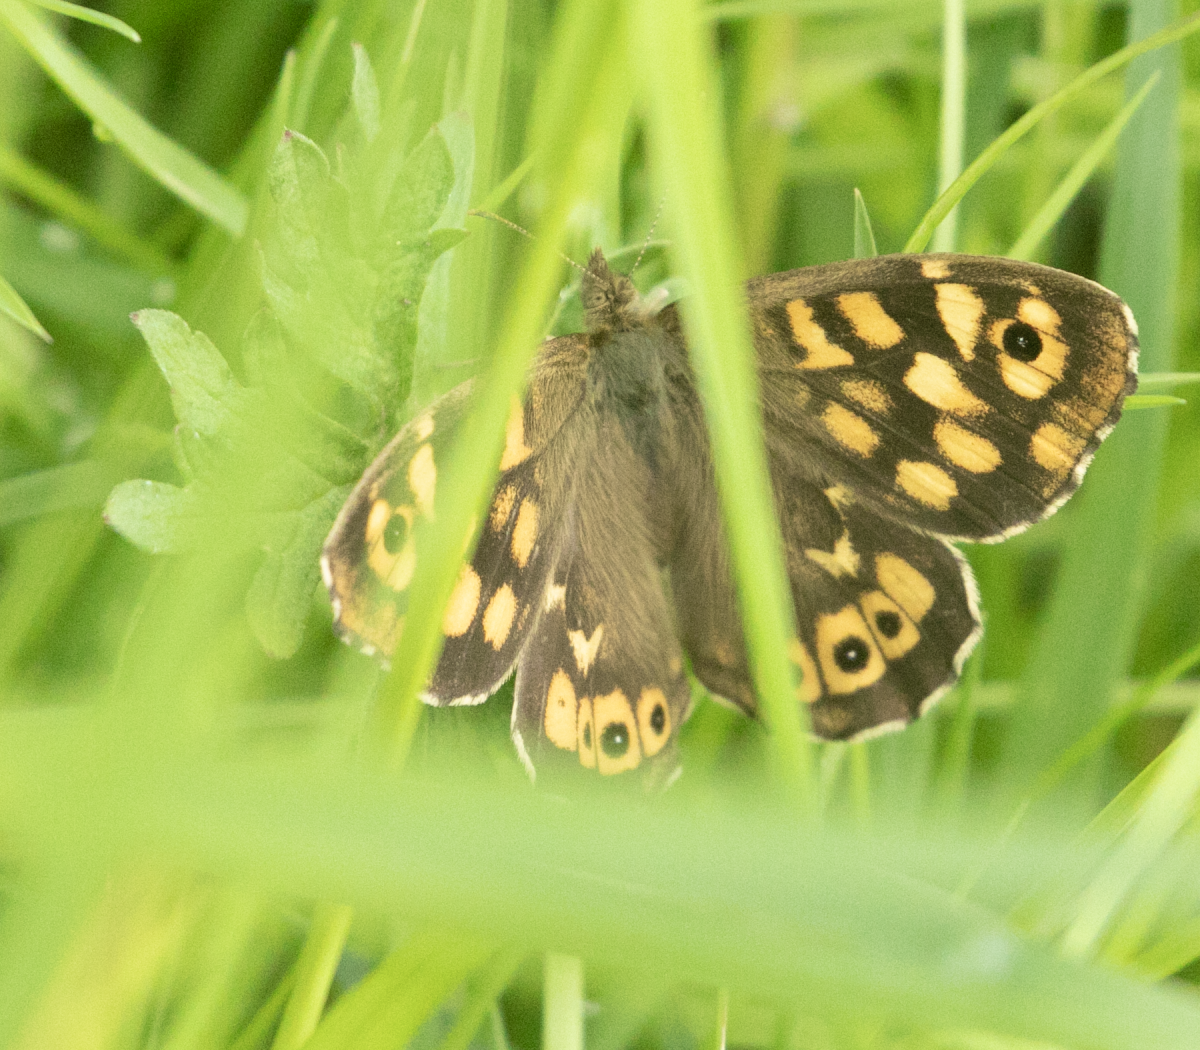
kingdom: Animalia
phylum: Arthropoda
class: Insecta
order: Lepidoptera
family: Nymphalidae
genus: Pararge
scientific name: Pararge aegeria
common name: Speckled wood
